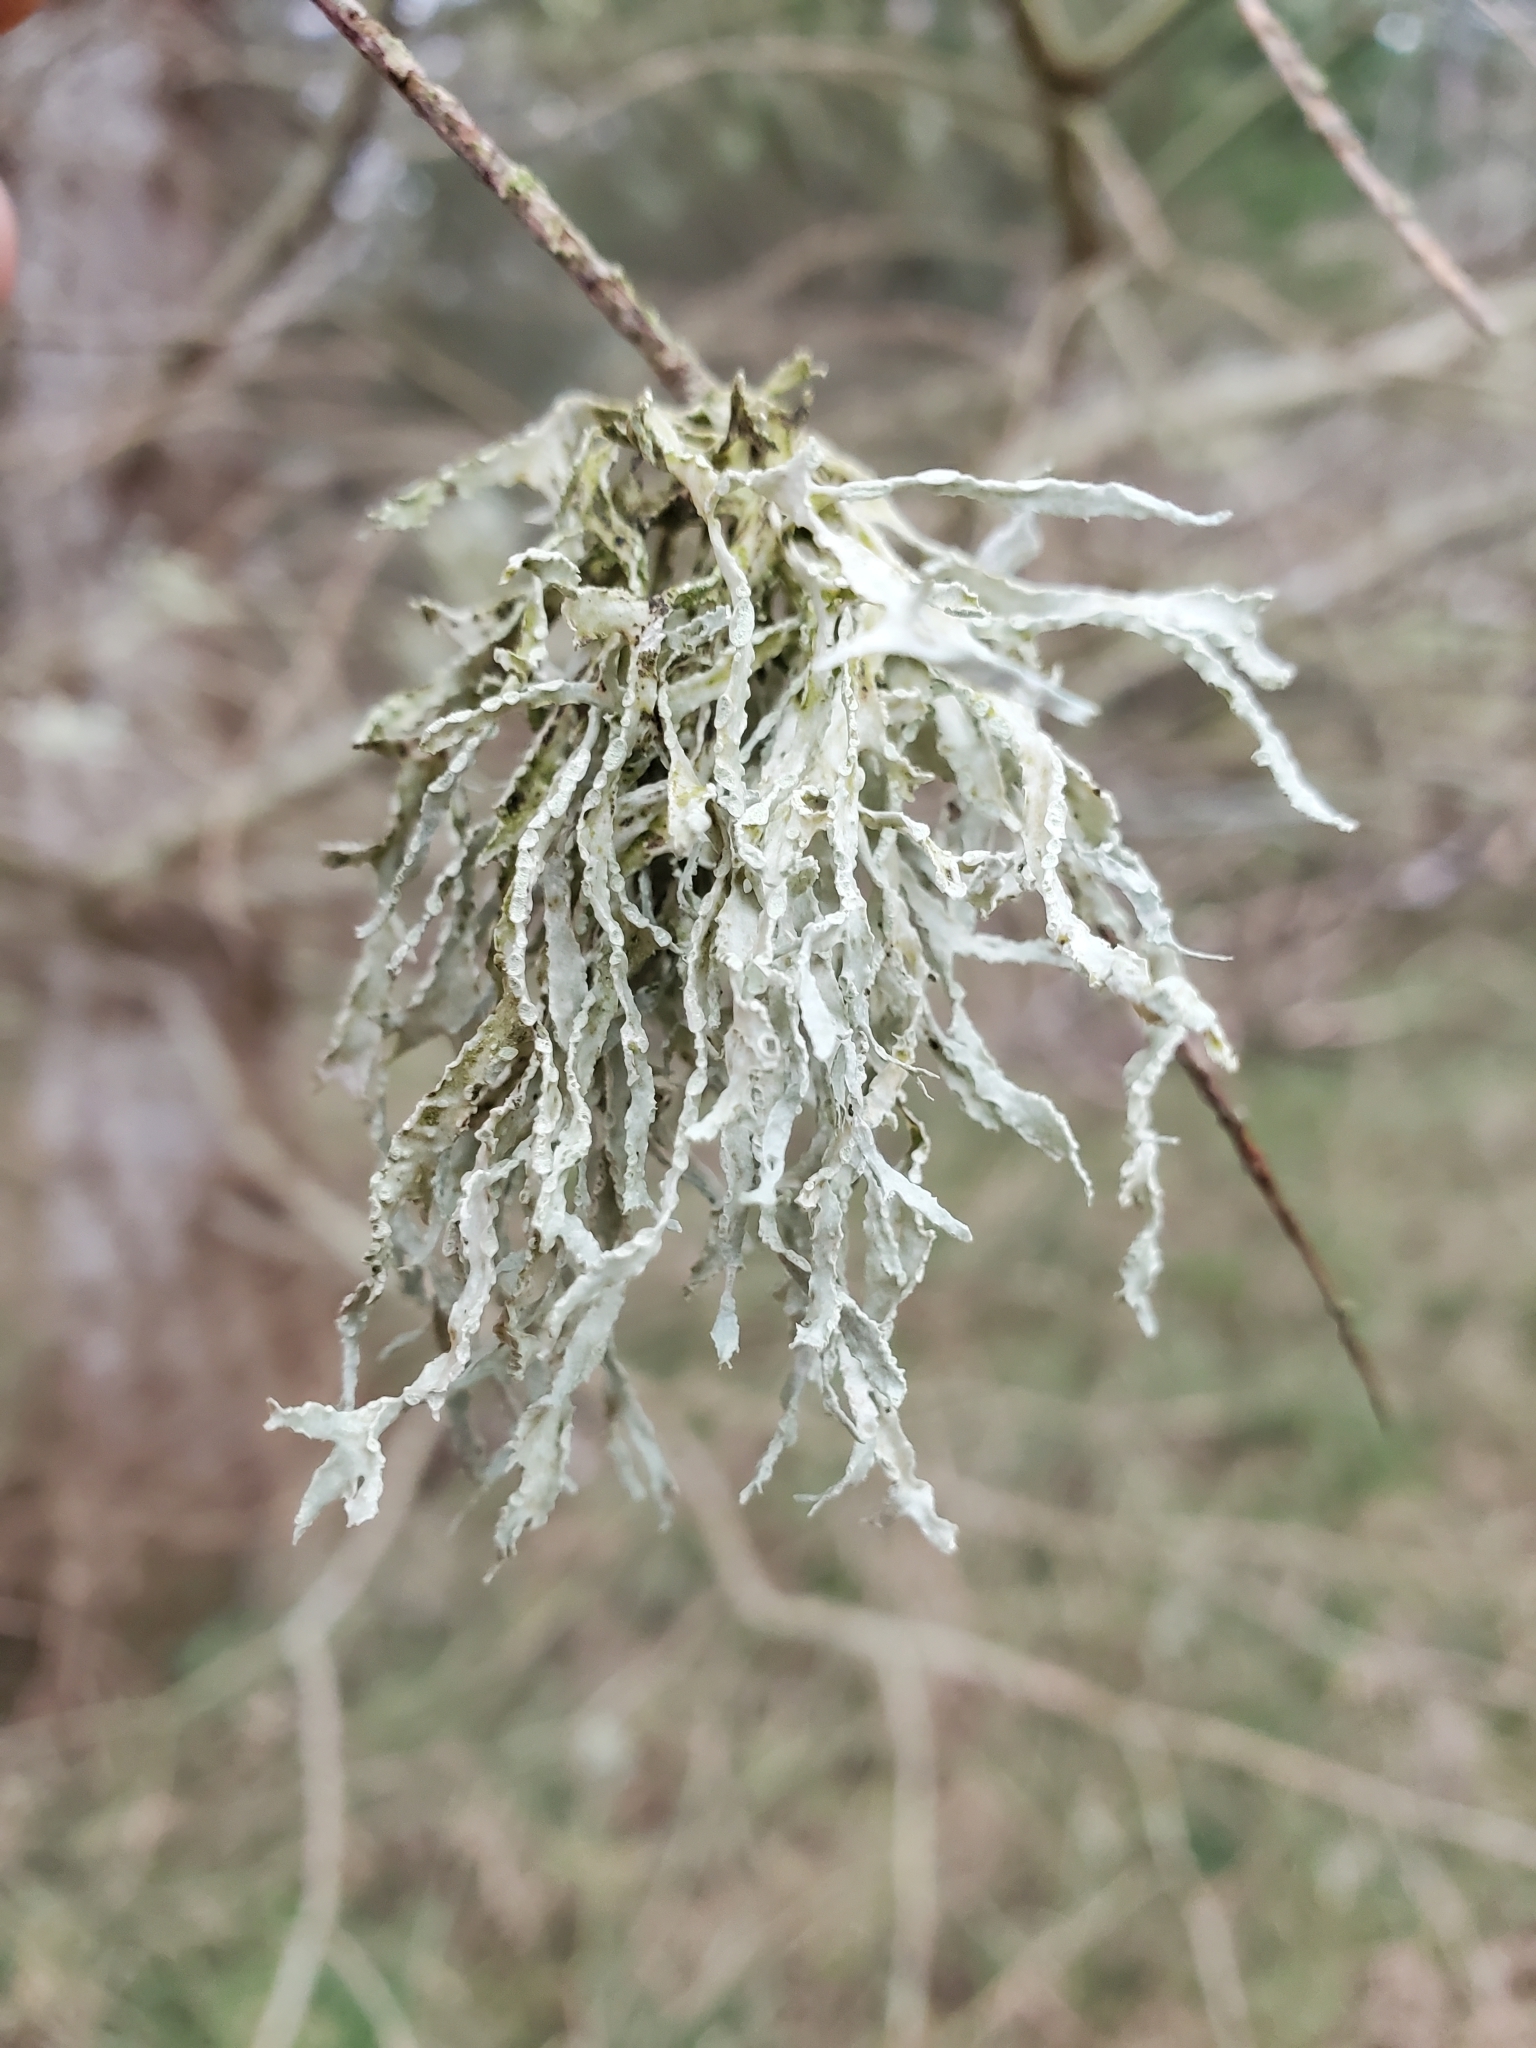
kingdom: Fungi
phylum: Ascomycota
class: Lecanoromycetes
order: Lecanorales
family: Ramalinaceae
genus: Ramalina
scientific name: Ramalina farinacea
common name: Farinose cartilage lichen
